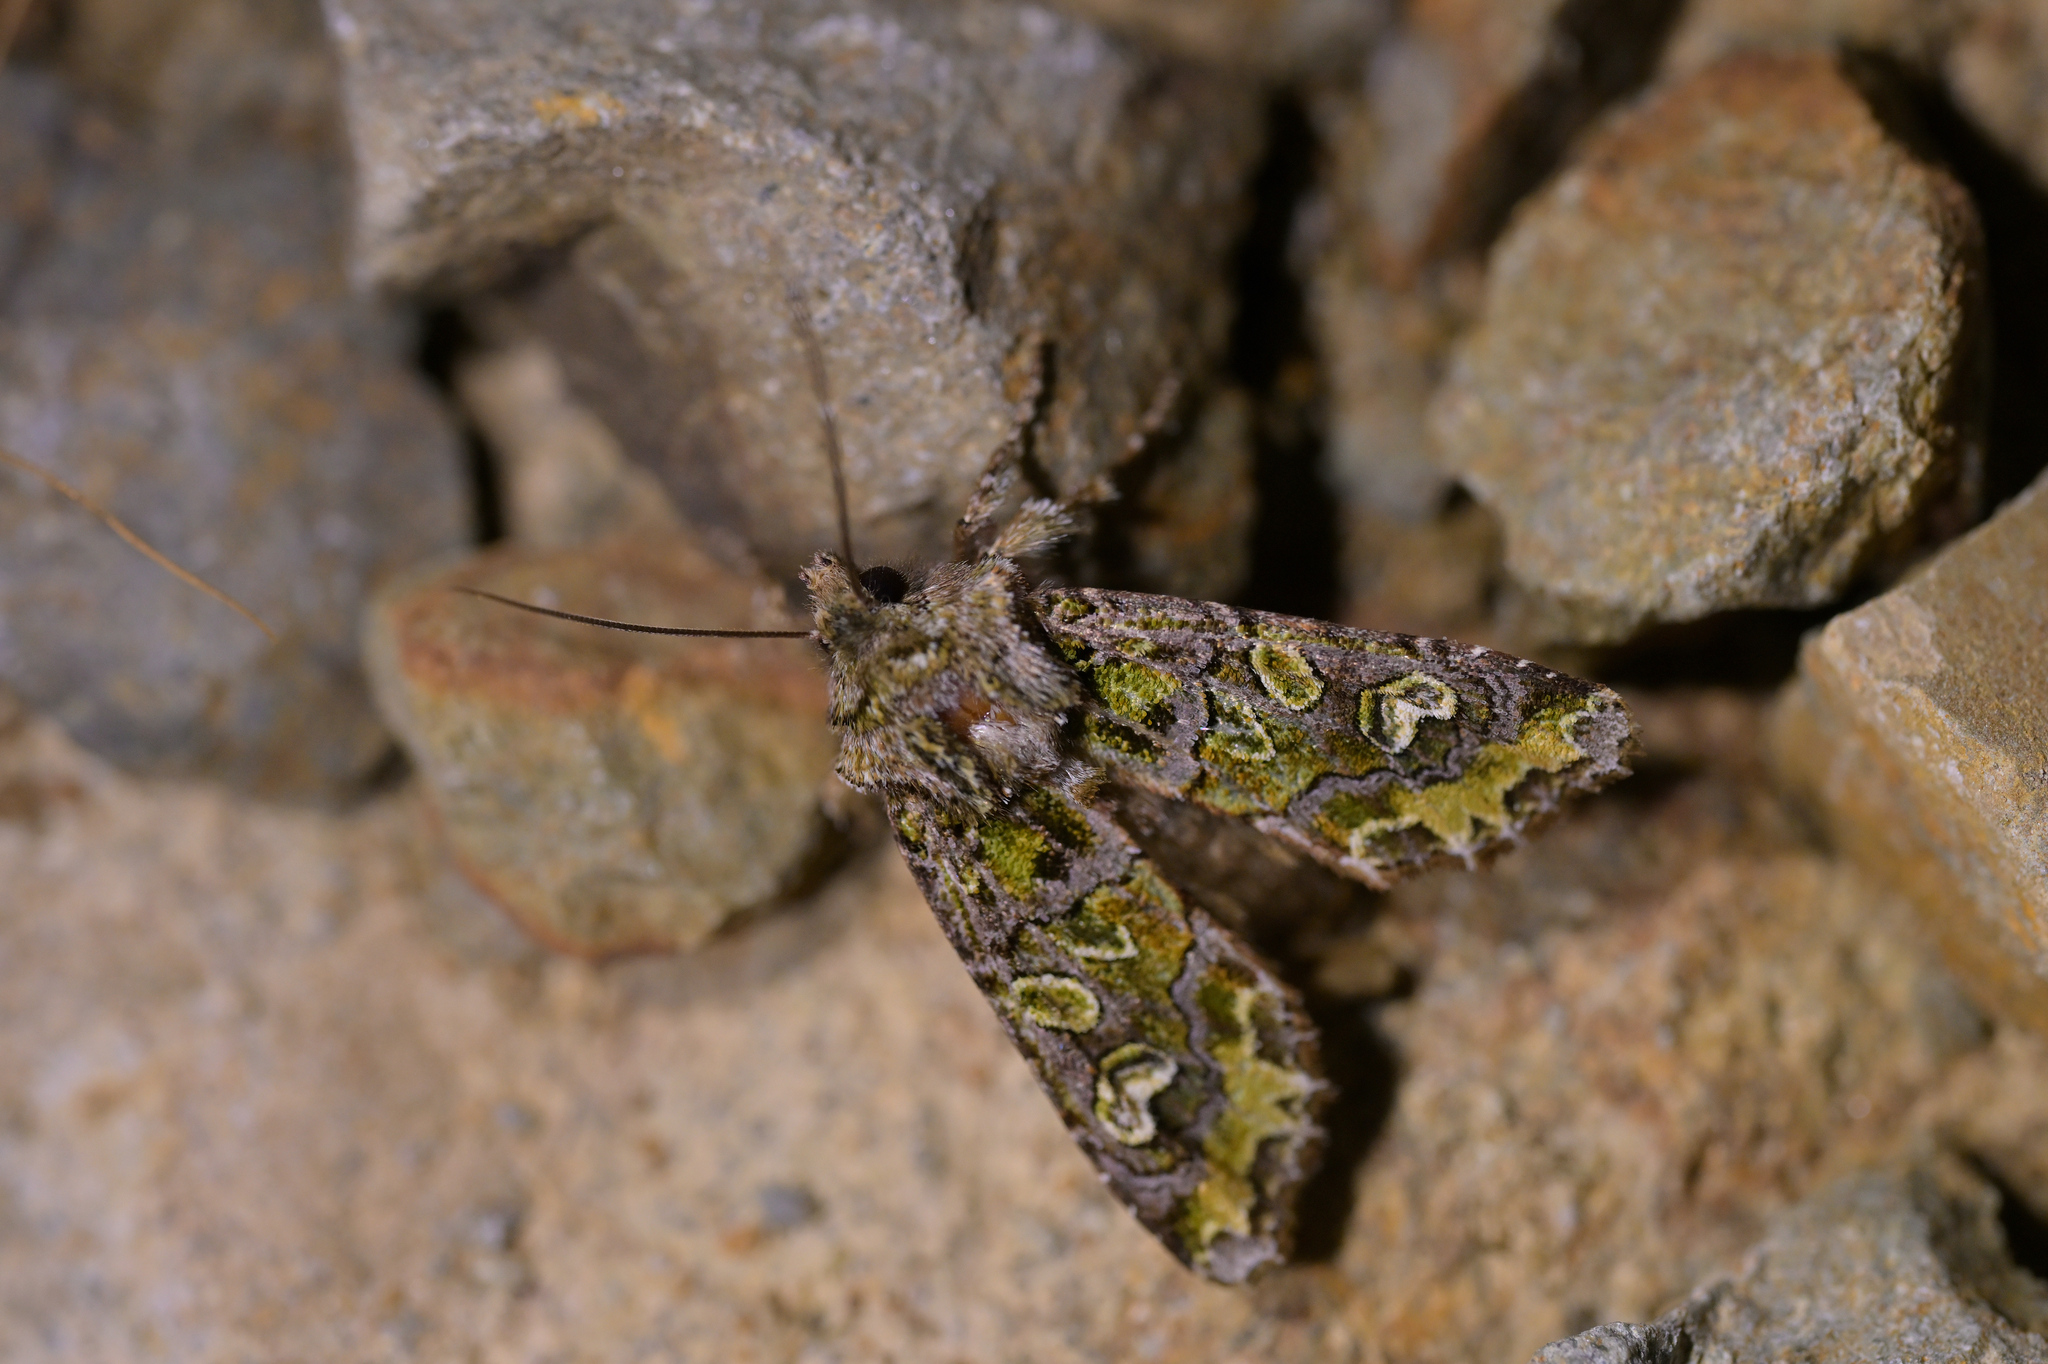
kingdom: Animalia
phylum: Arthropoda
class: Insecta
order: Lepidoptera
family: Noctuidae
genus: Ichneutica
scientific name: Ichneutica chlorodonta
